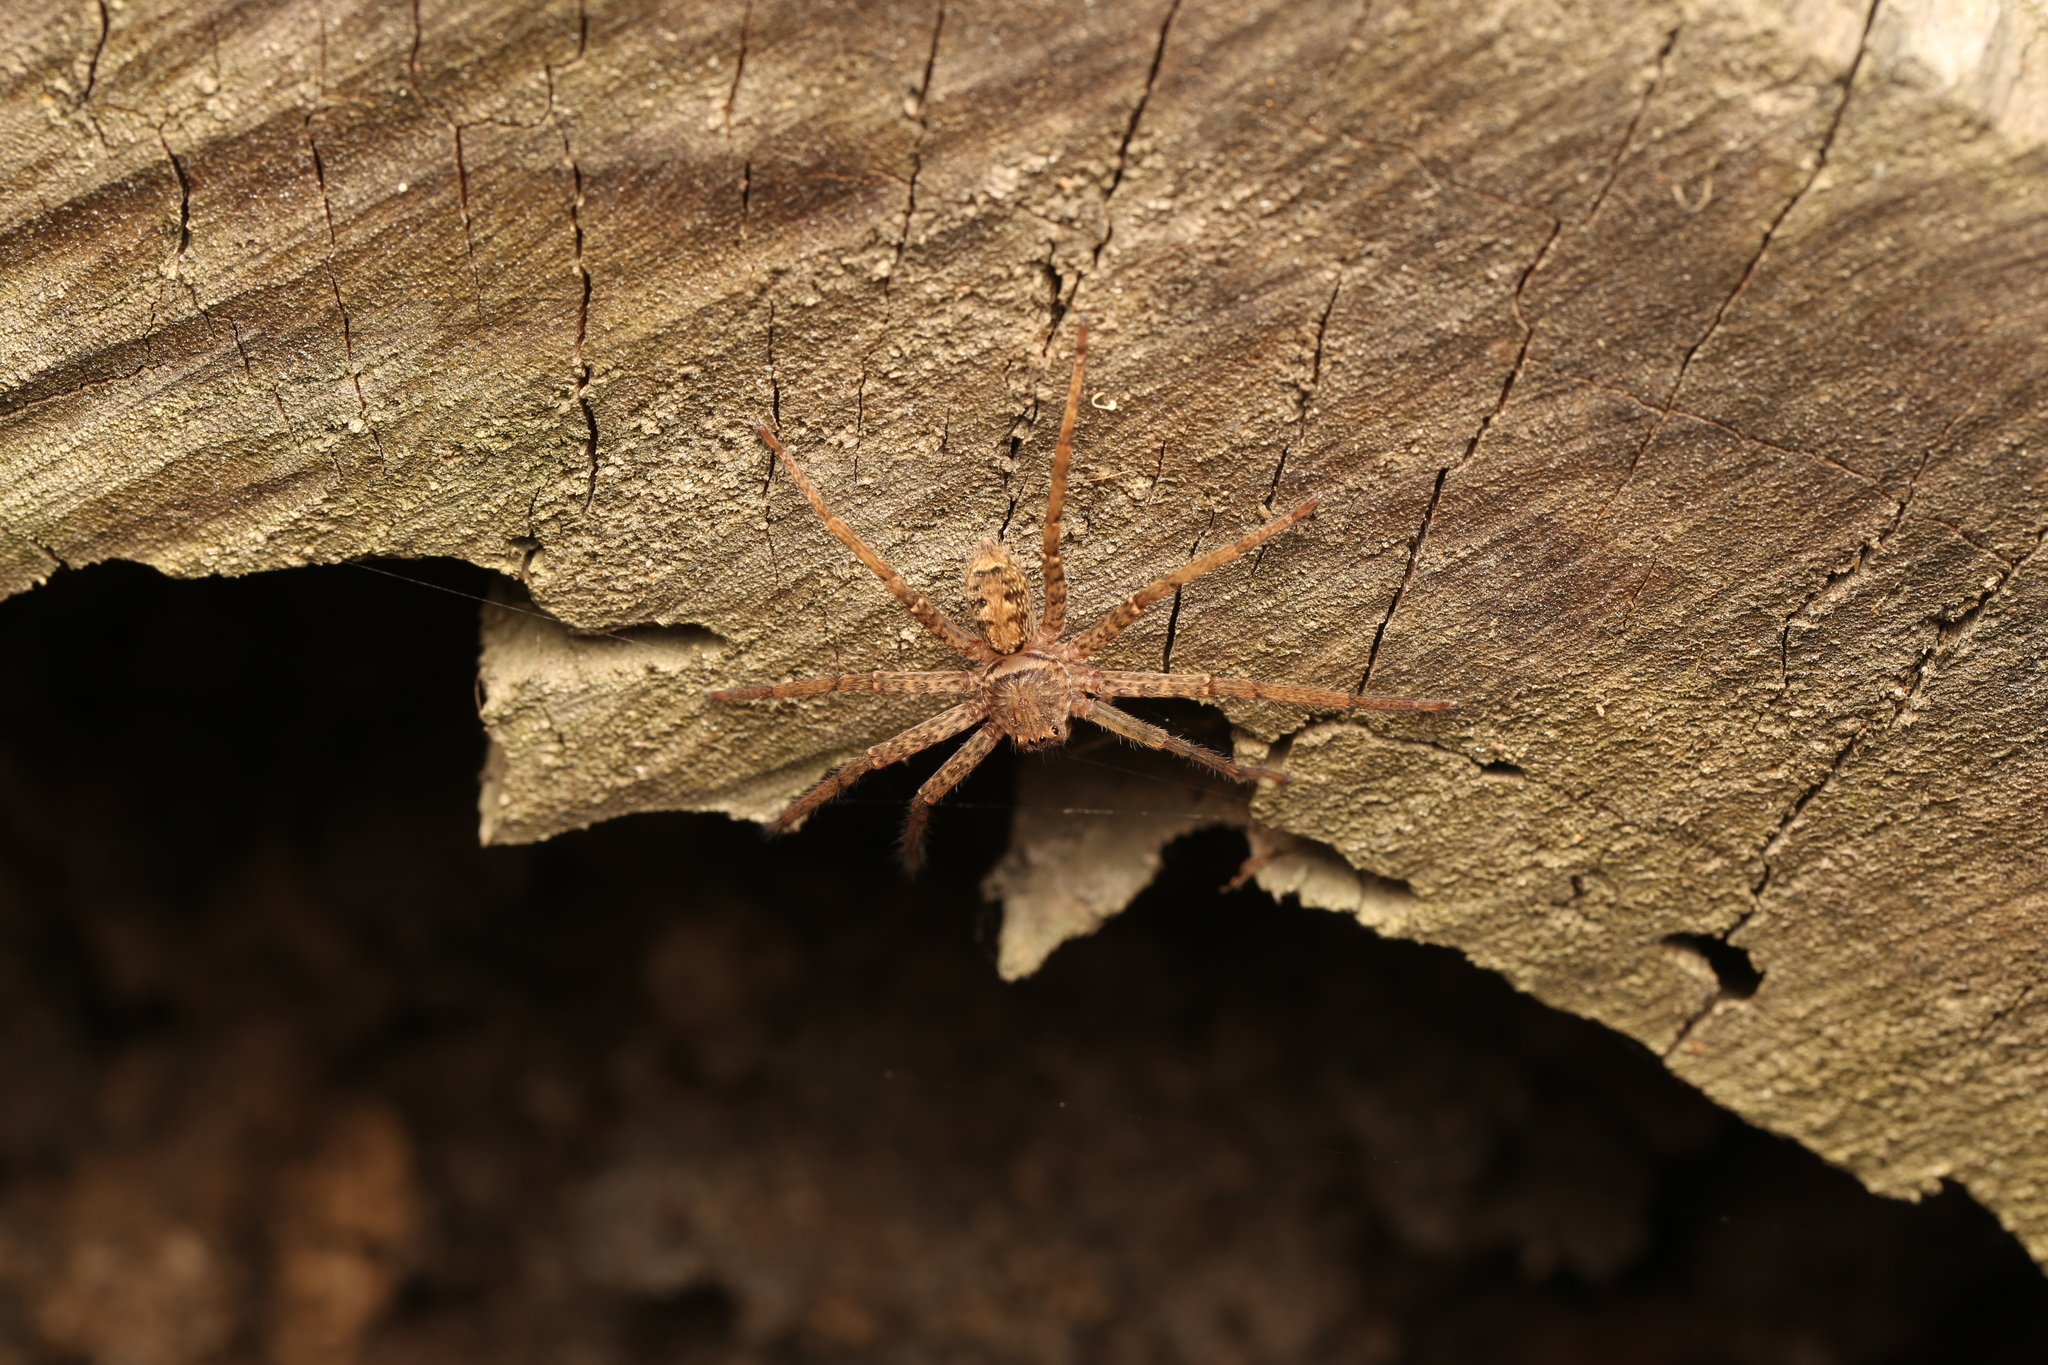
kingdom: Animalia
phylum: Arthropoda
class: Arachnida
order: Araneae
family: Sparassidae
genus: Heteropoda
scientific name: Heteropoda jugulans
